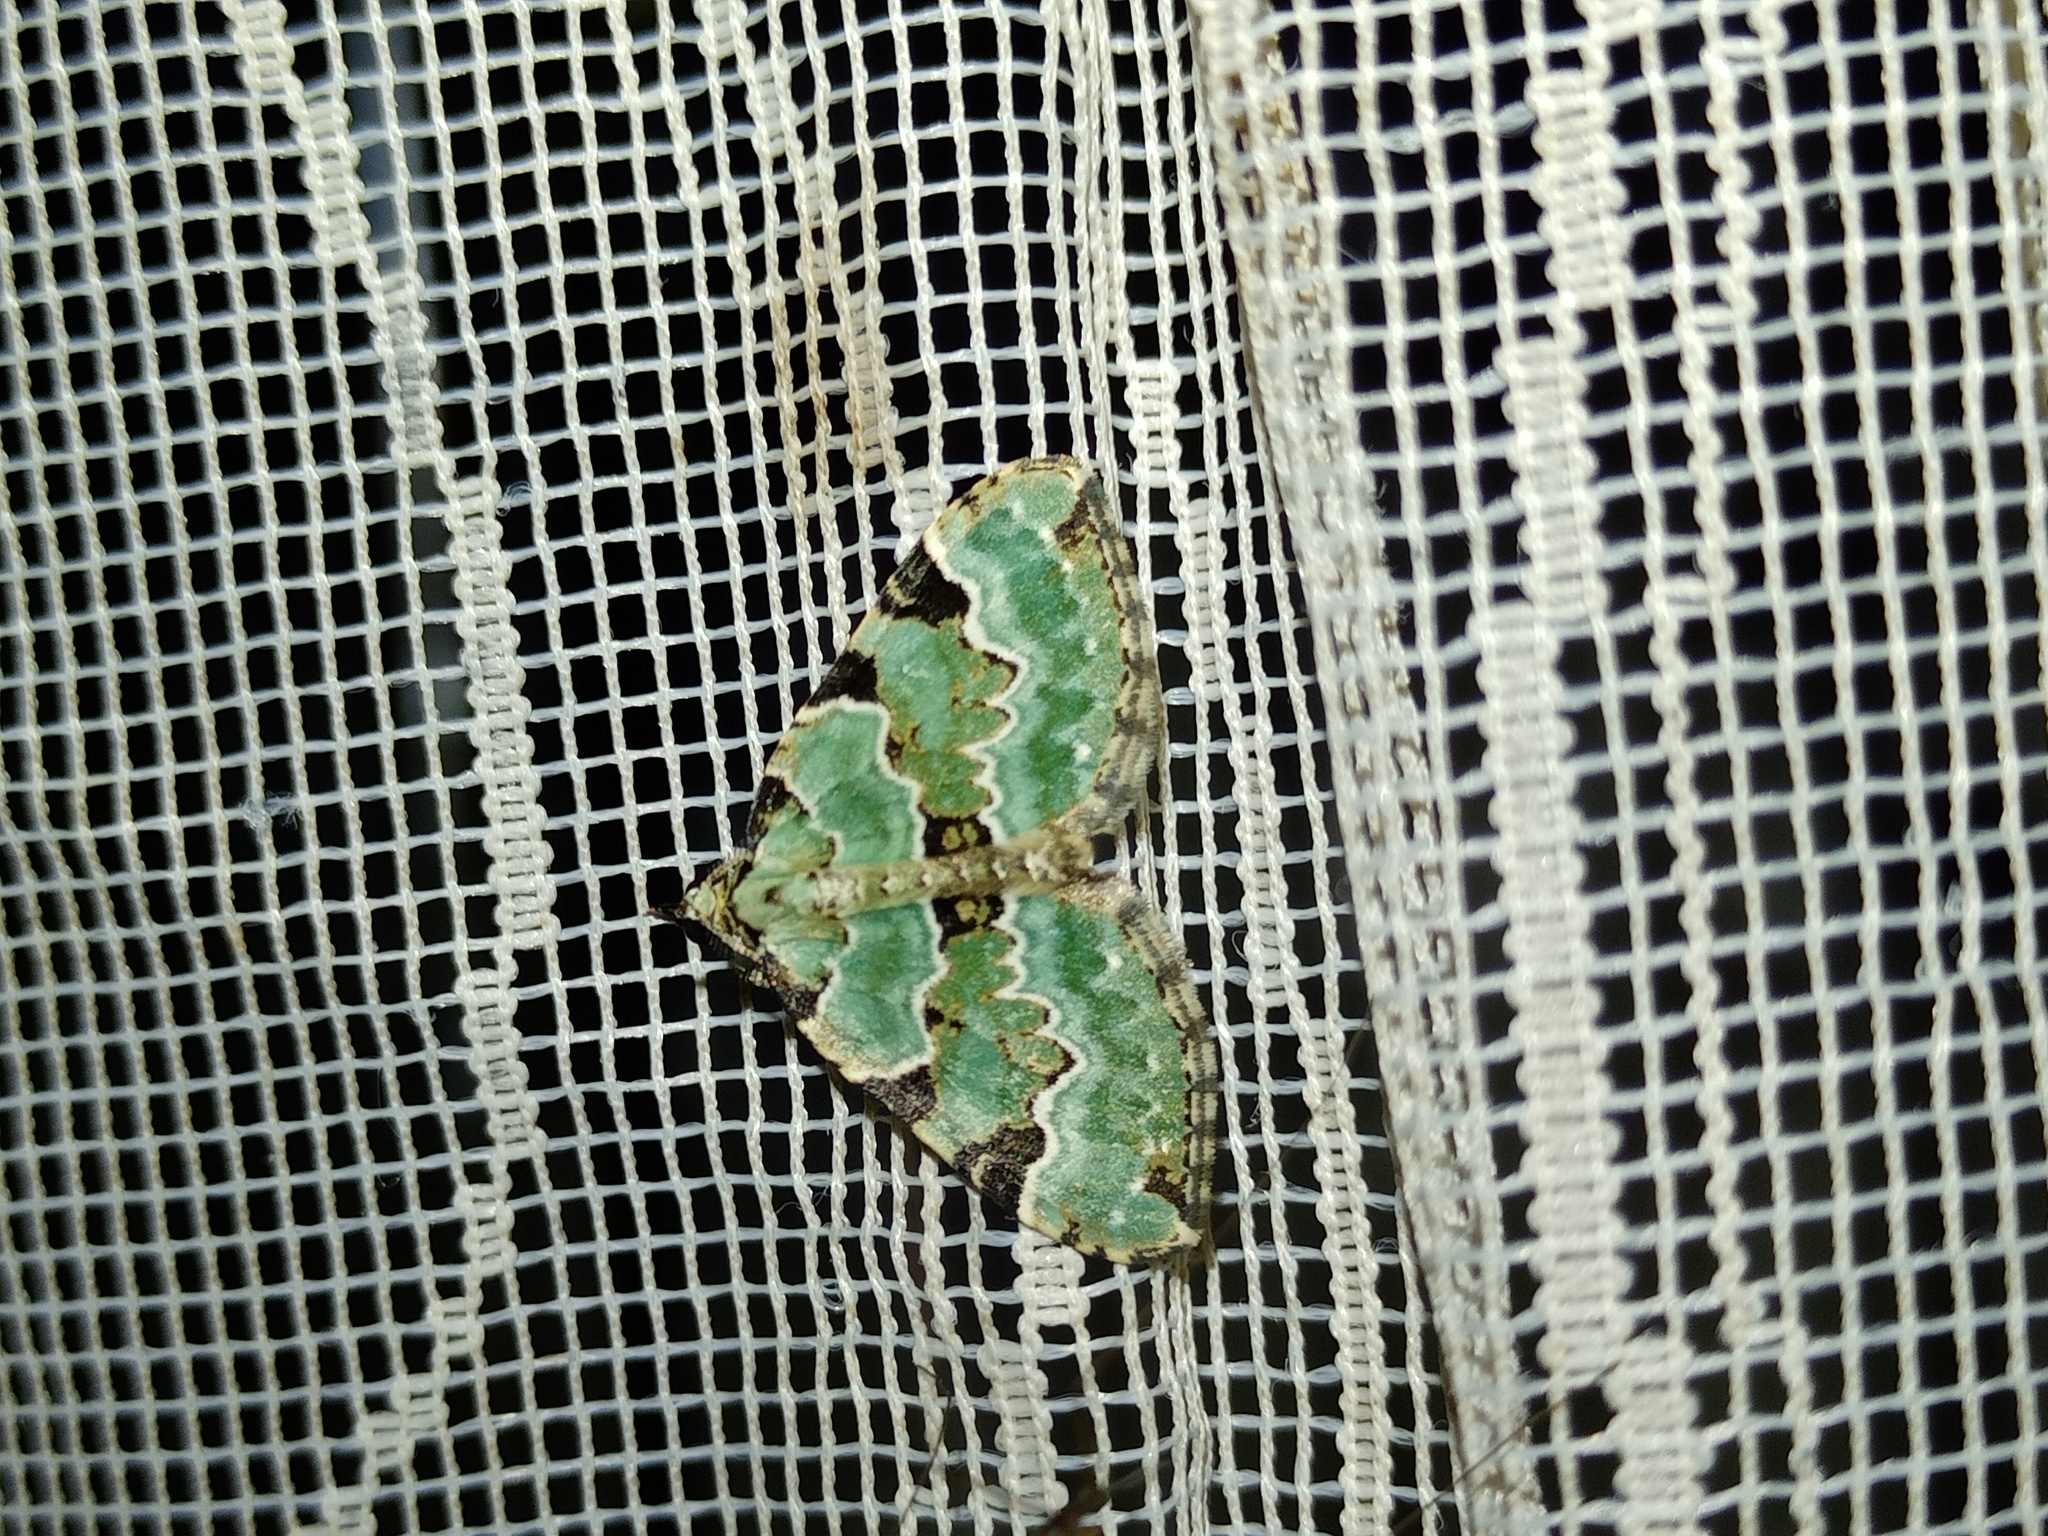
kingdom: Animalia
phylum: Arthropoda
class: Insecta
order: Lepidoptera
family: Geometridae
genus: Colostygia
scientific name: Colostygia pectinataria
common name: Green carpet
